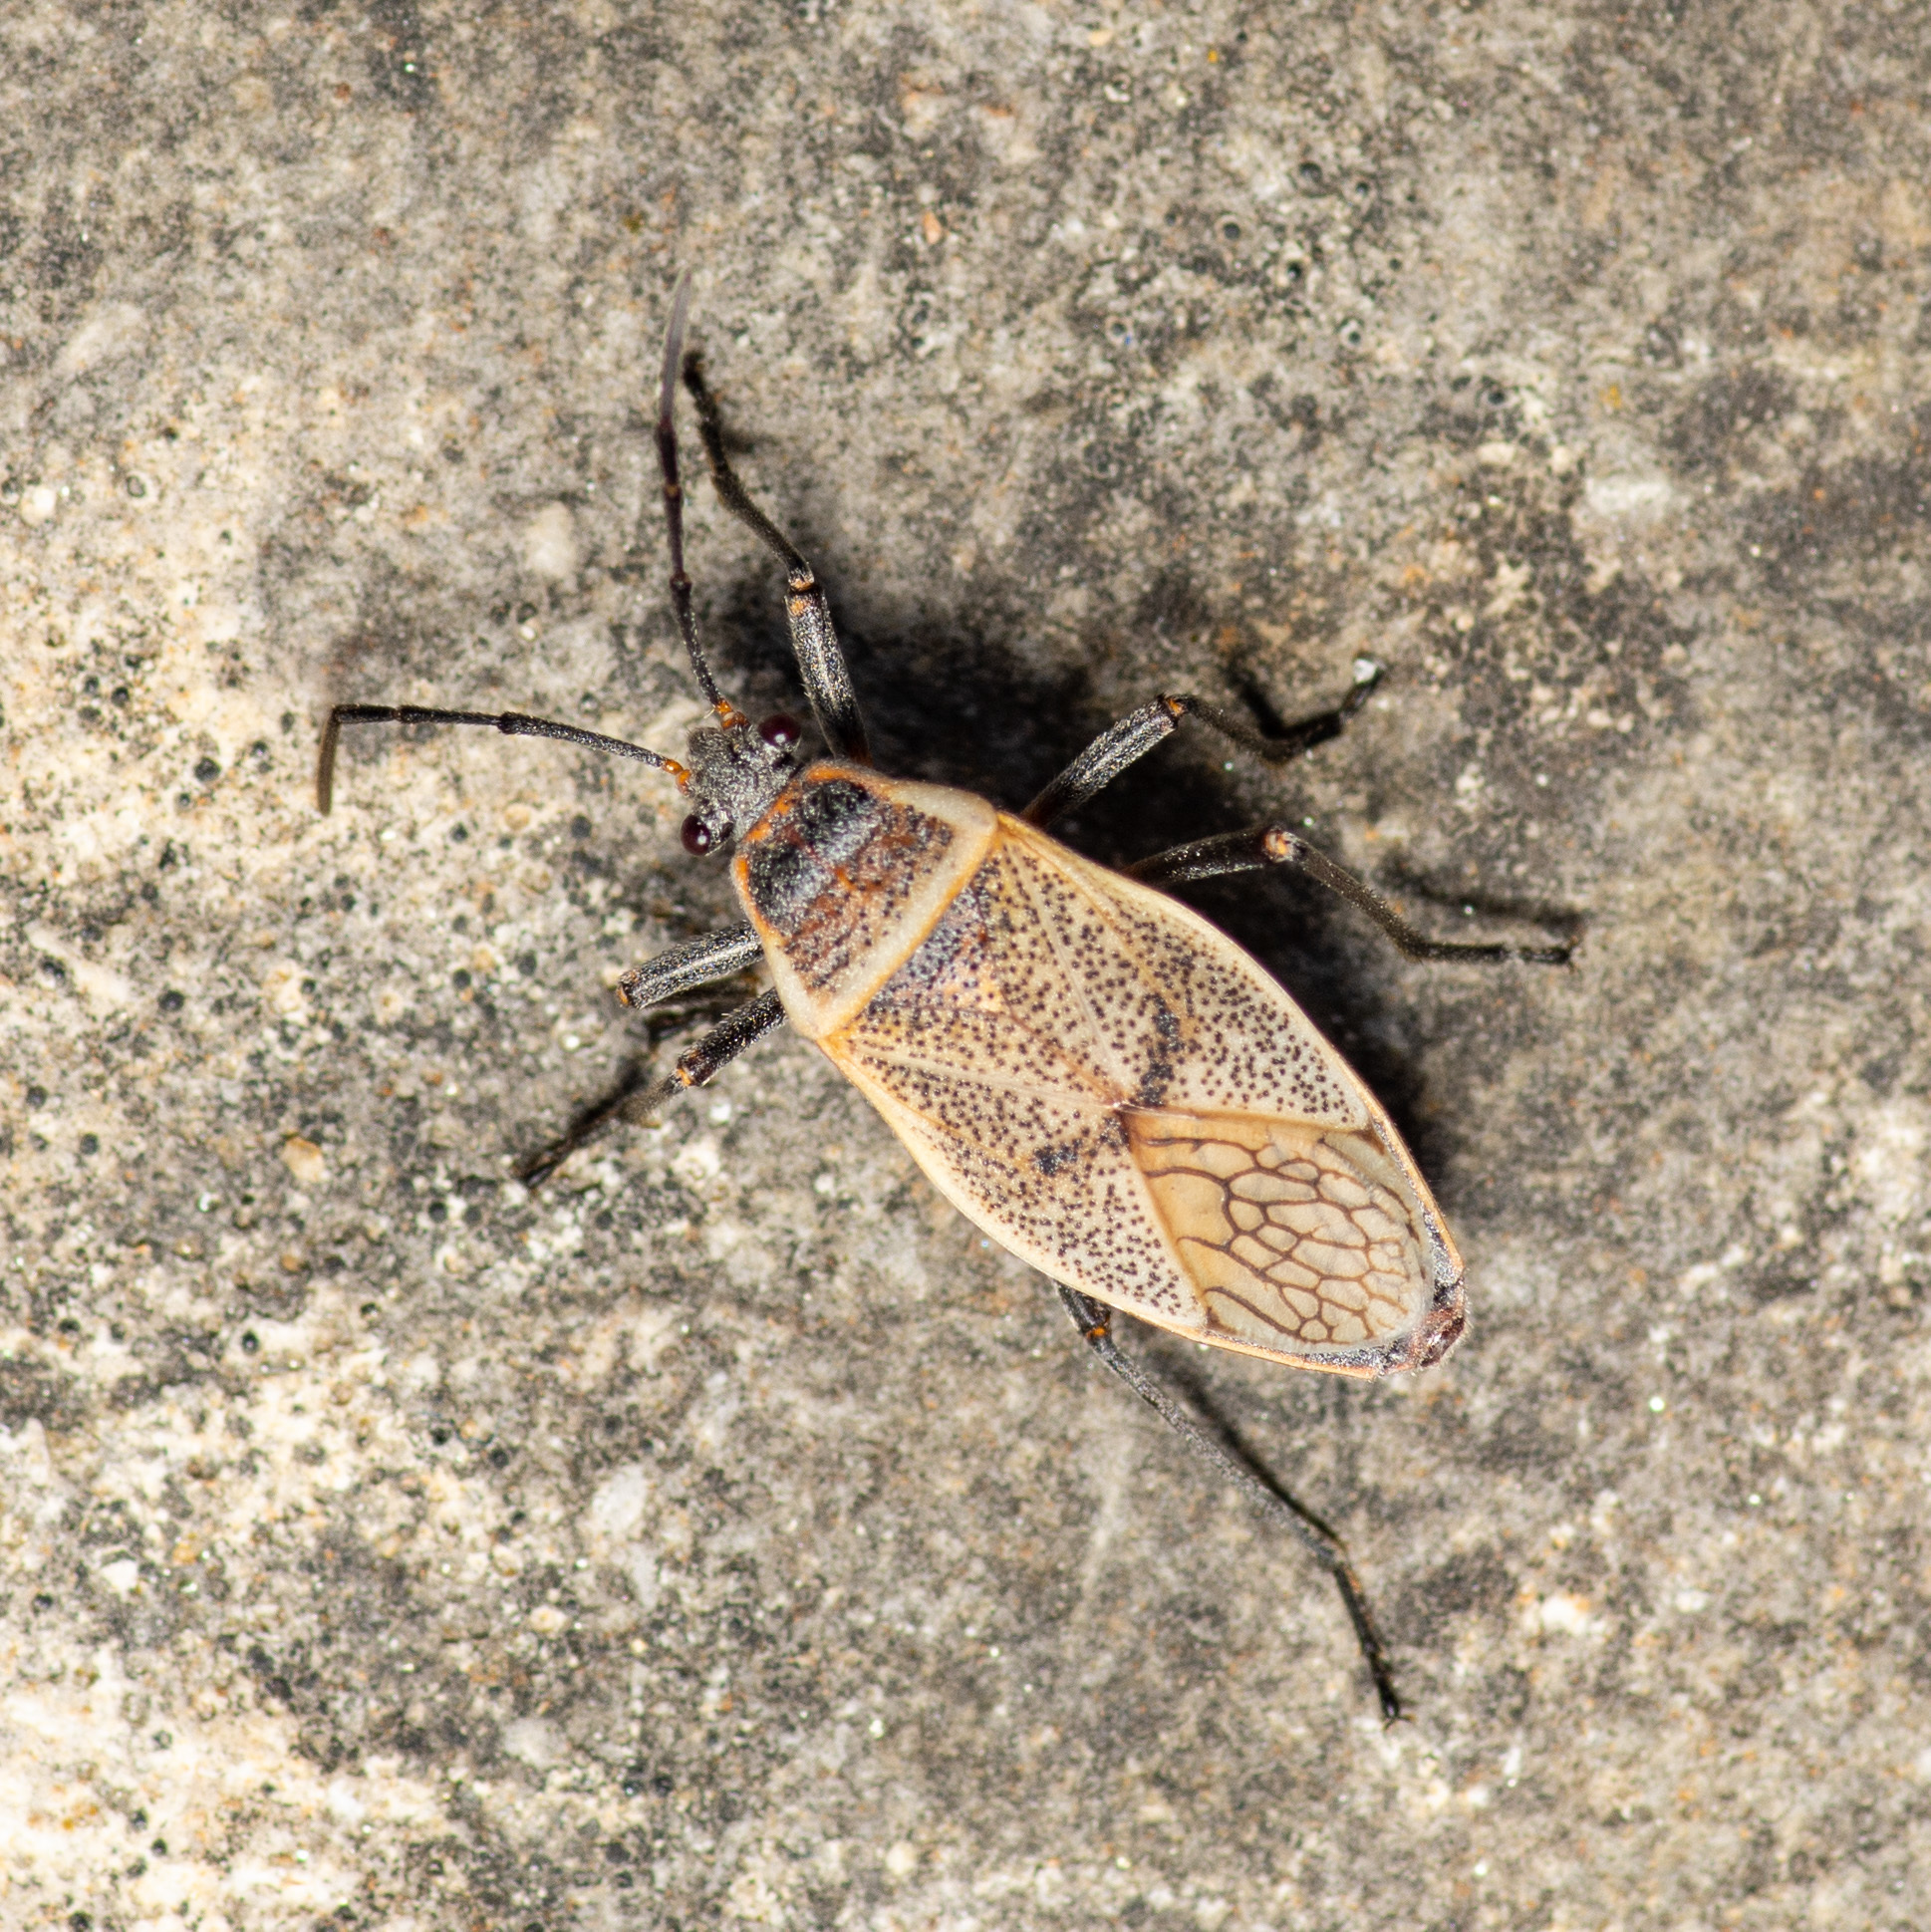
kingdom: Animalia
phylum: Arthropoda
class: Insecta
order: Hemiptera
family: Largidae
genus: Largus
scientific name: Largus maculatus
